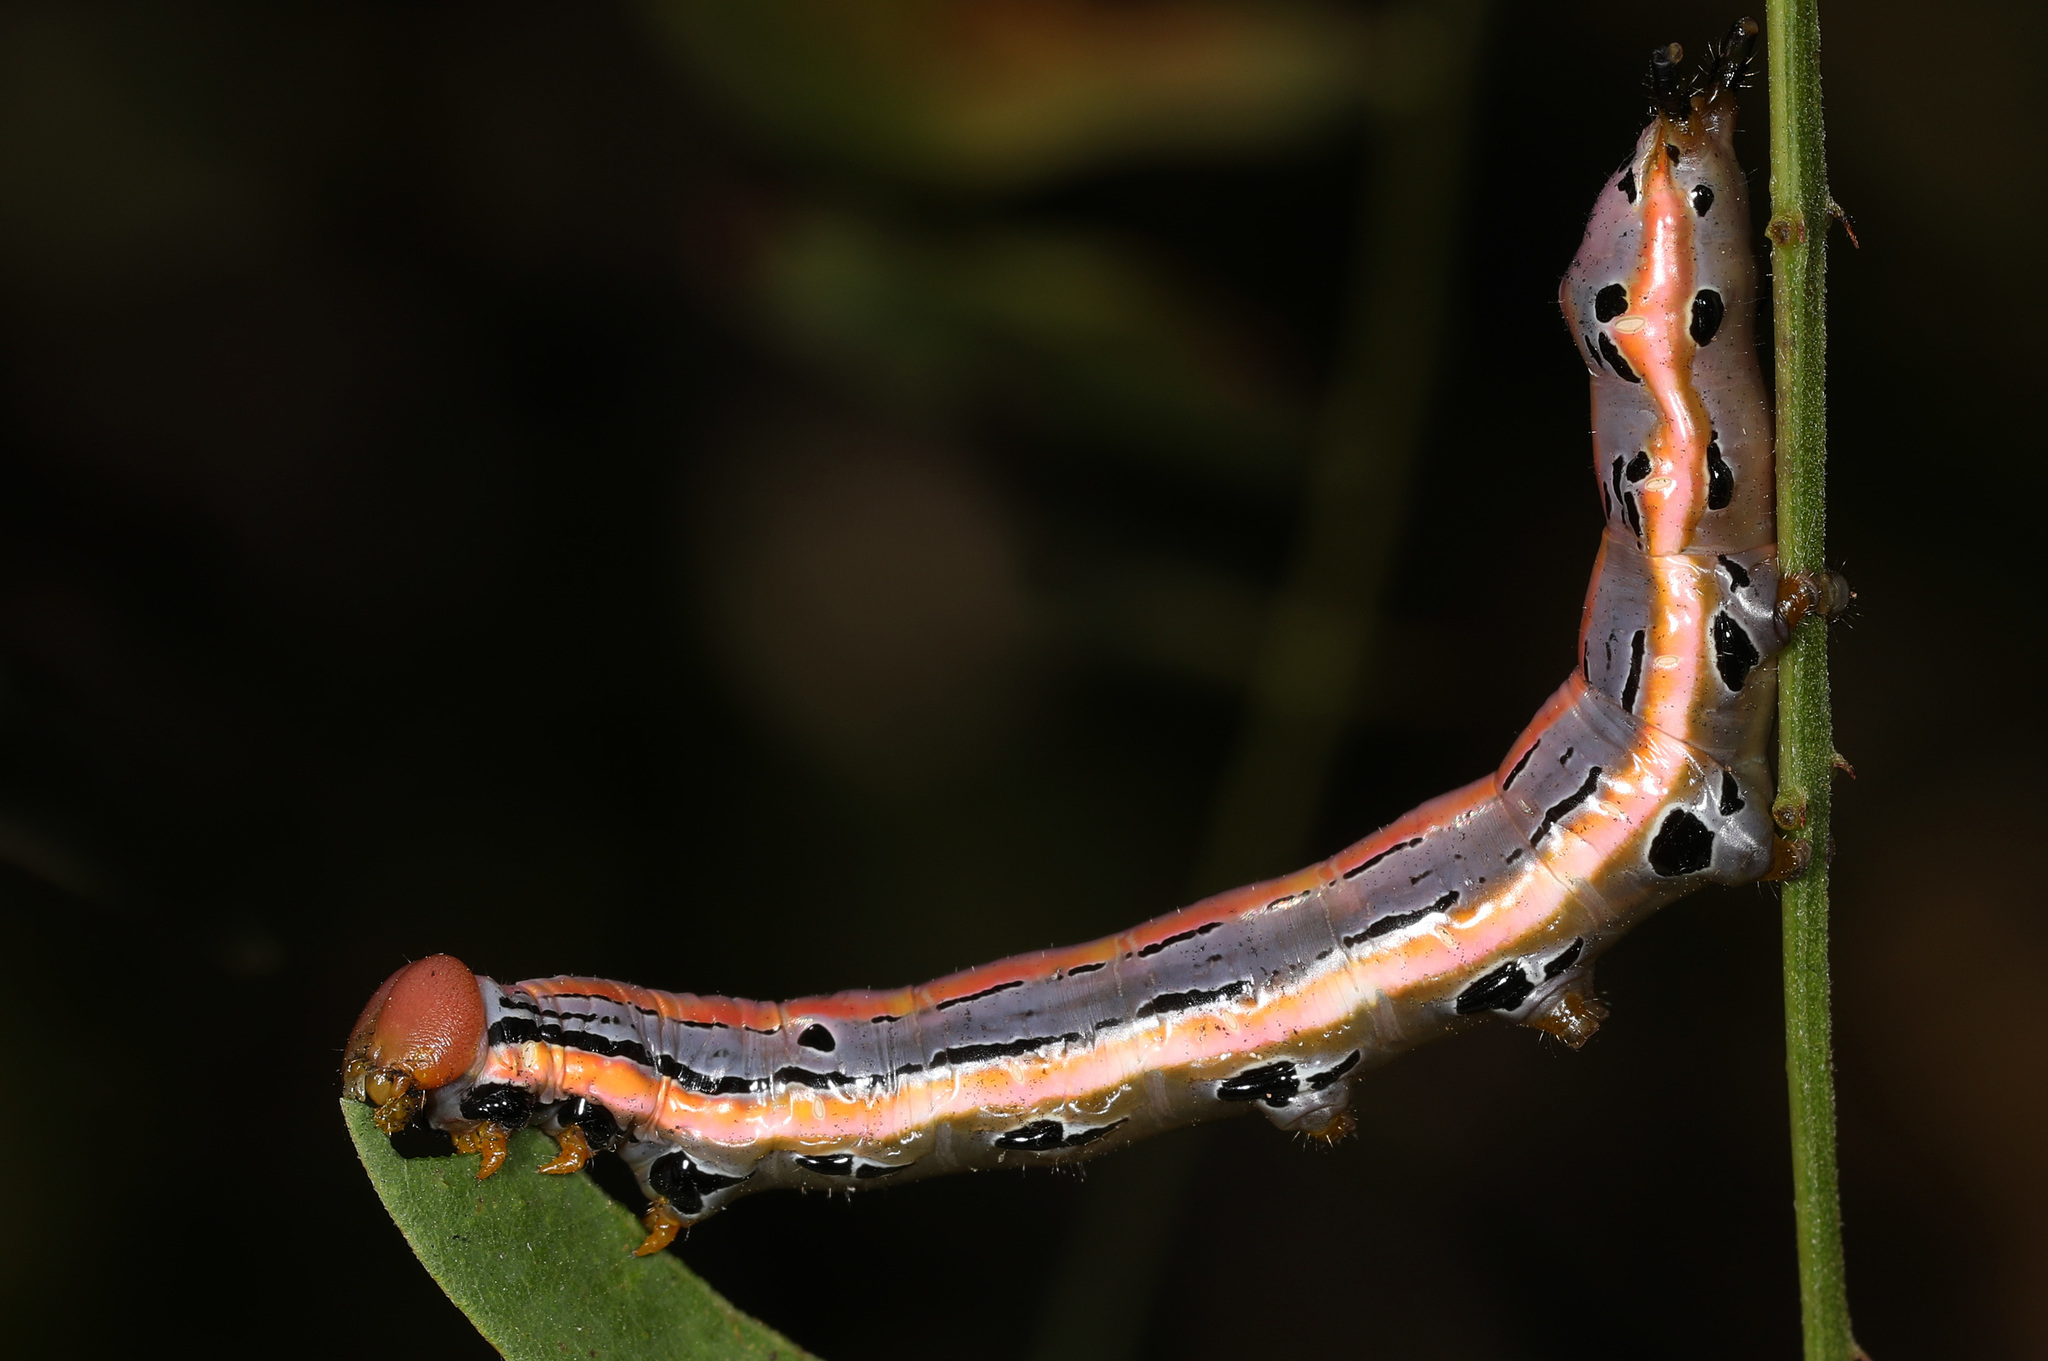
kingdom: Animalia
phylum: Arthropoda
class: Insecta
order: Lepidoptera
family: Notodontidae
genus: Dasylophia
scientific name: Dasylophia anguina
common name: Black-spotted prominent
